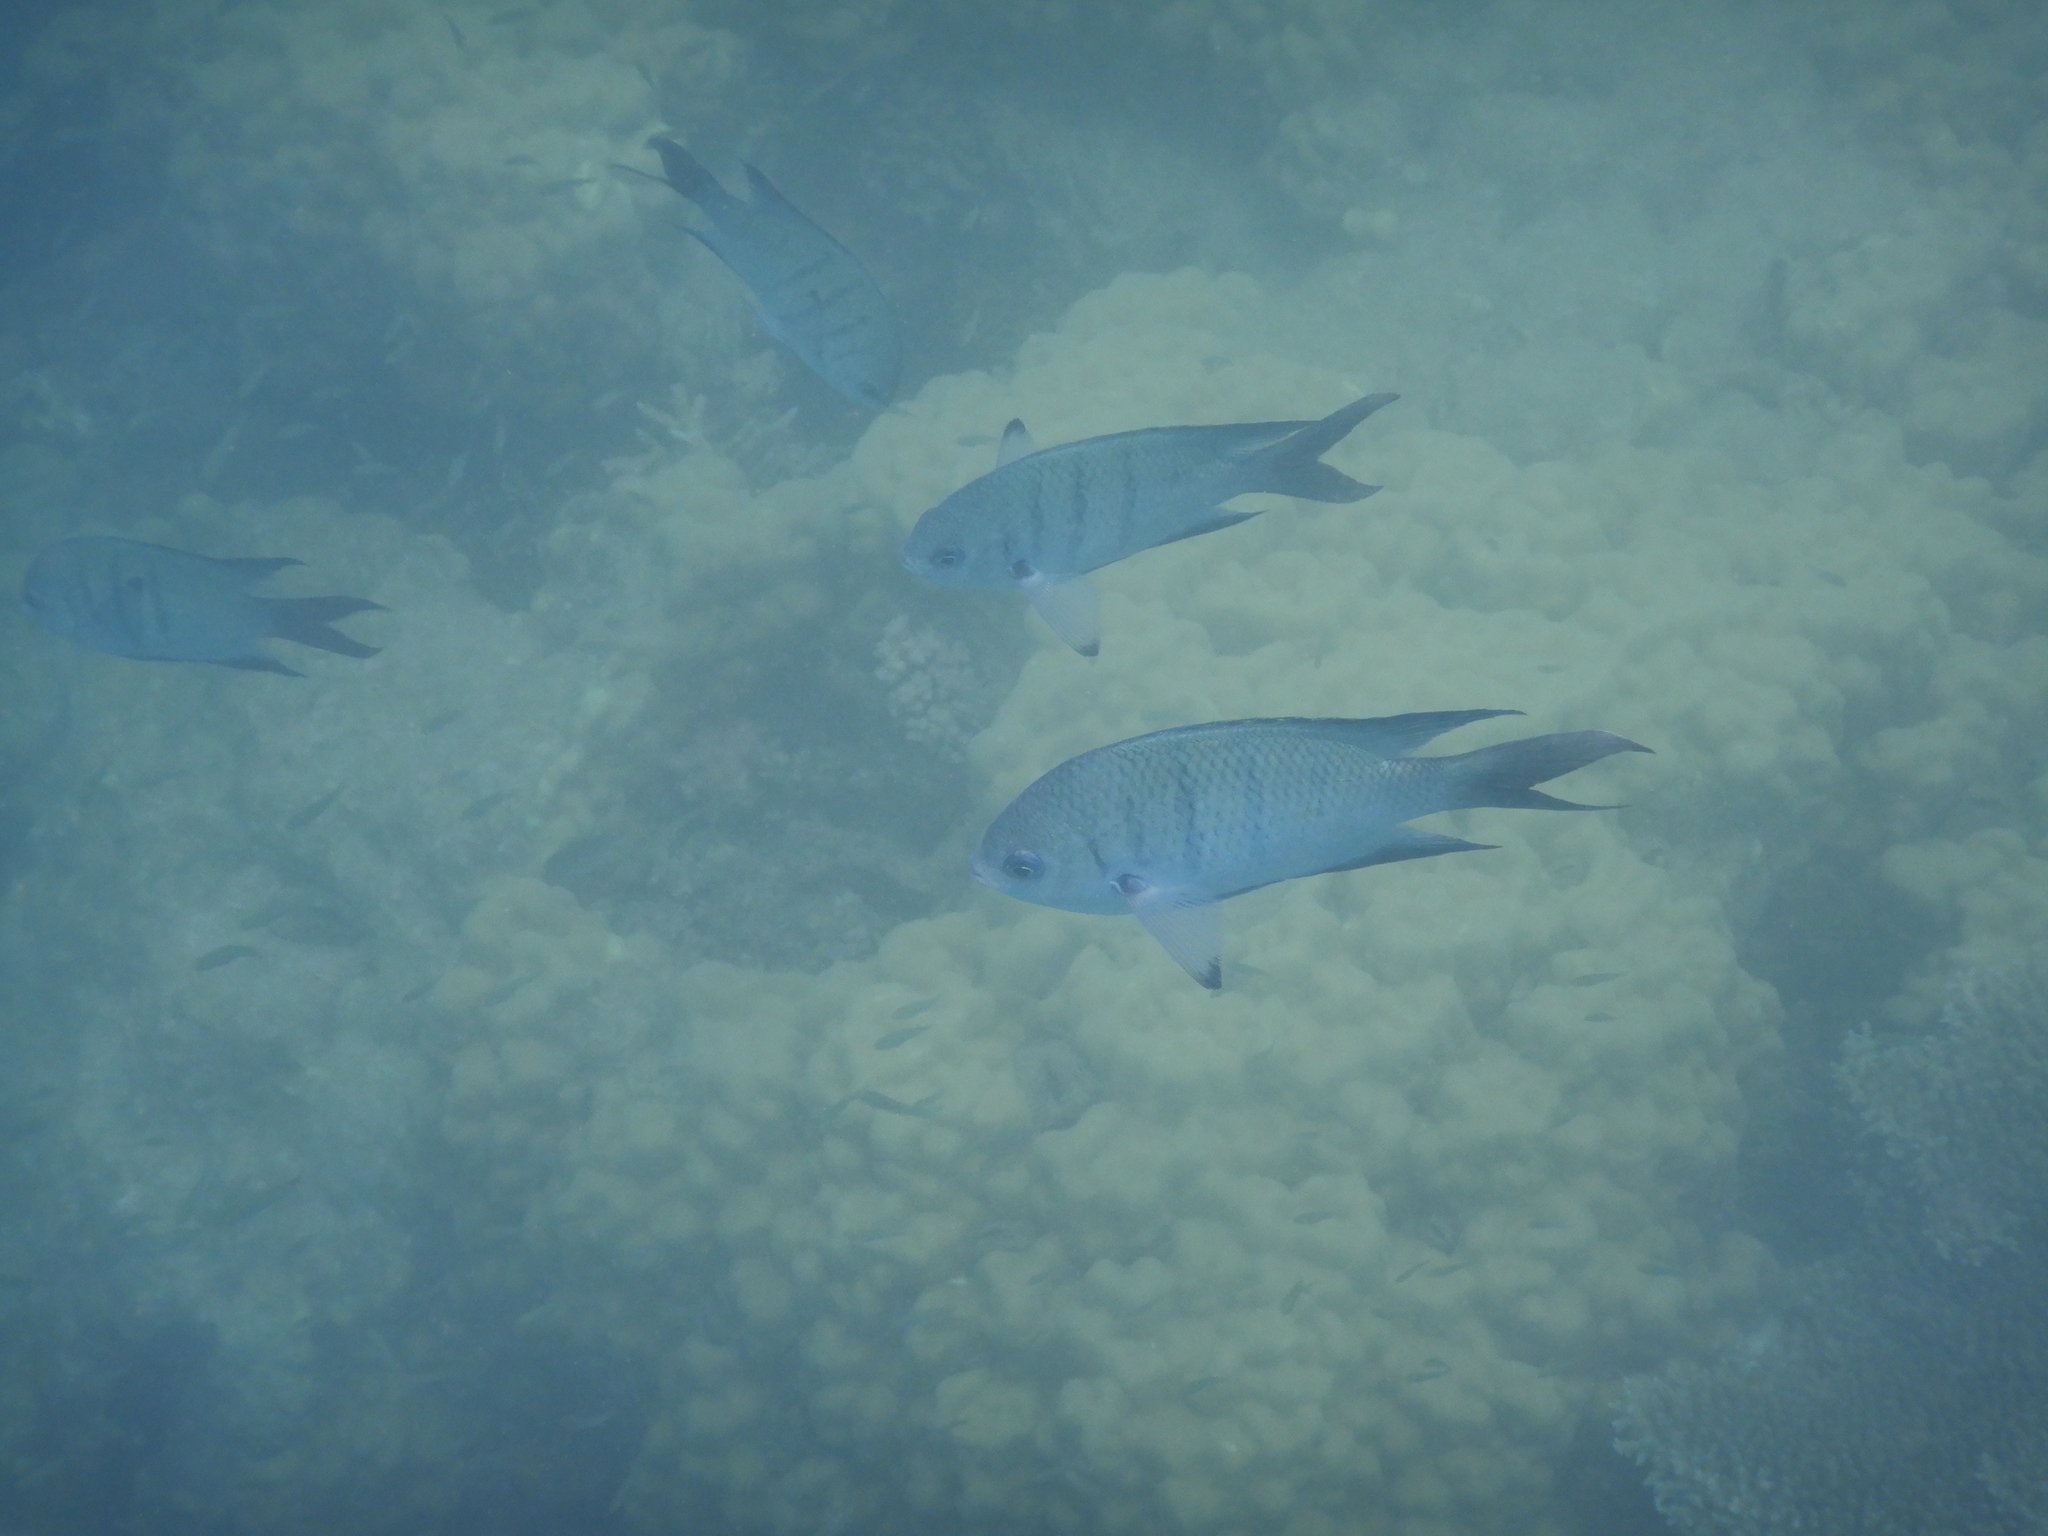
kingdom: Animalia
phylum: Chordata
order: Perciformes
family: Pomacentridae
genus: Abudefduf
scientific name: Abudefduf whitleyi
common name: Whitley's seargent
